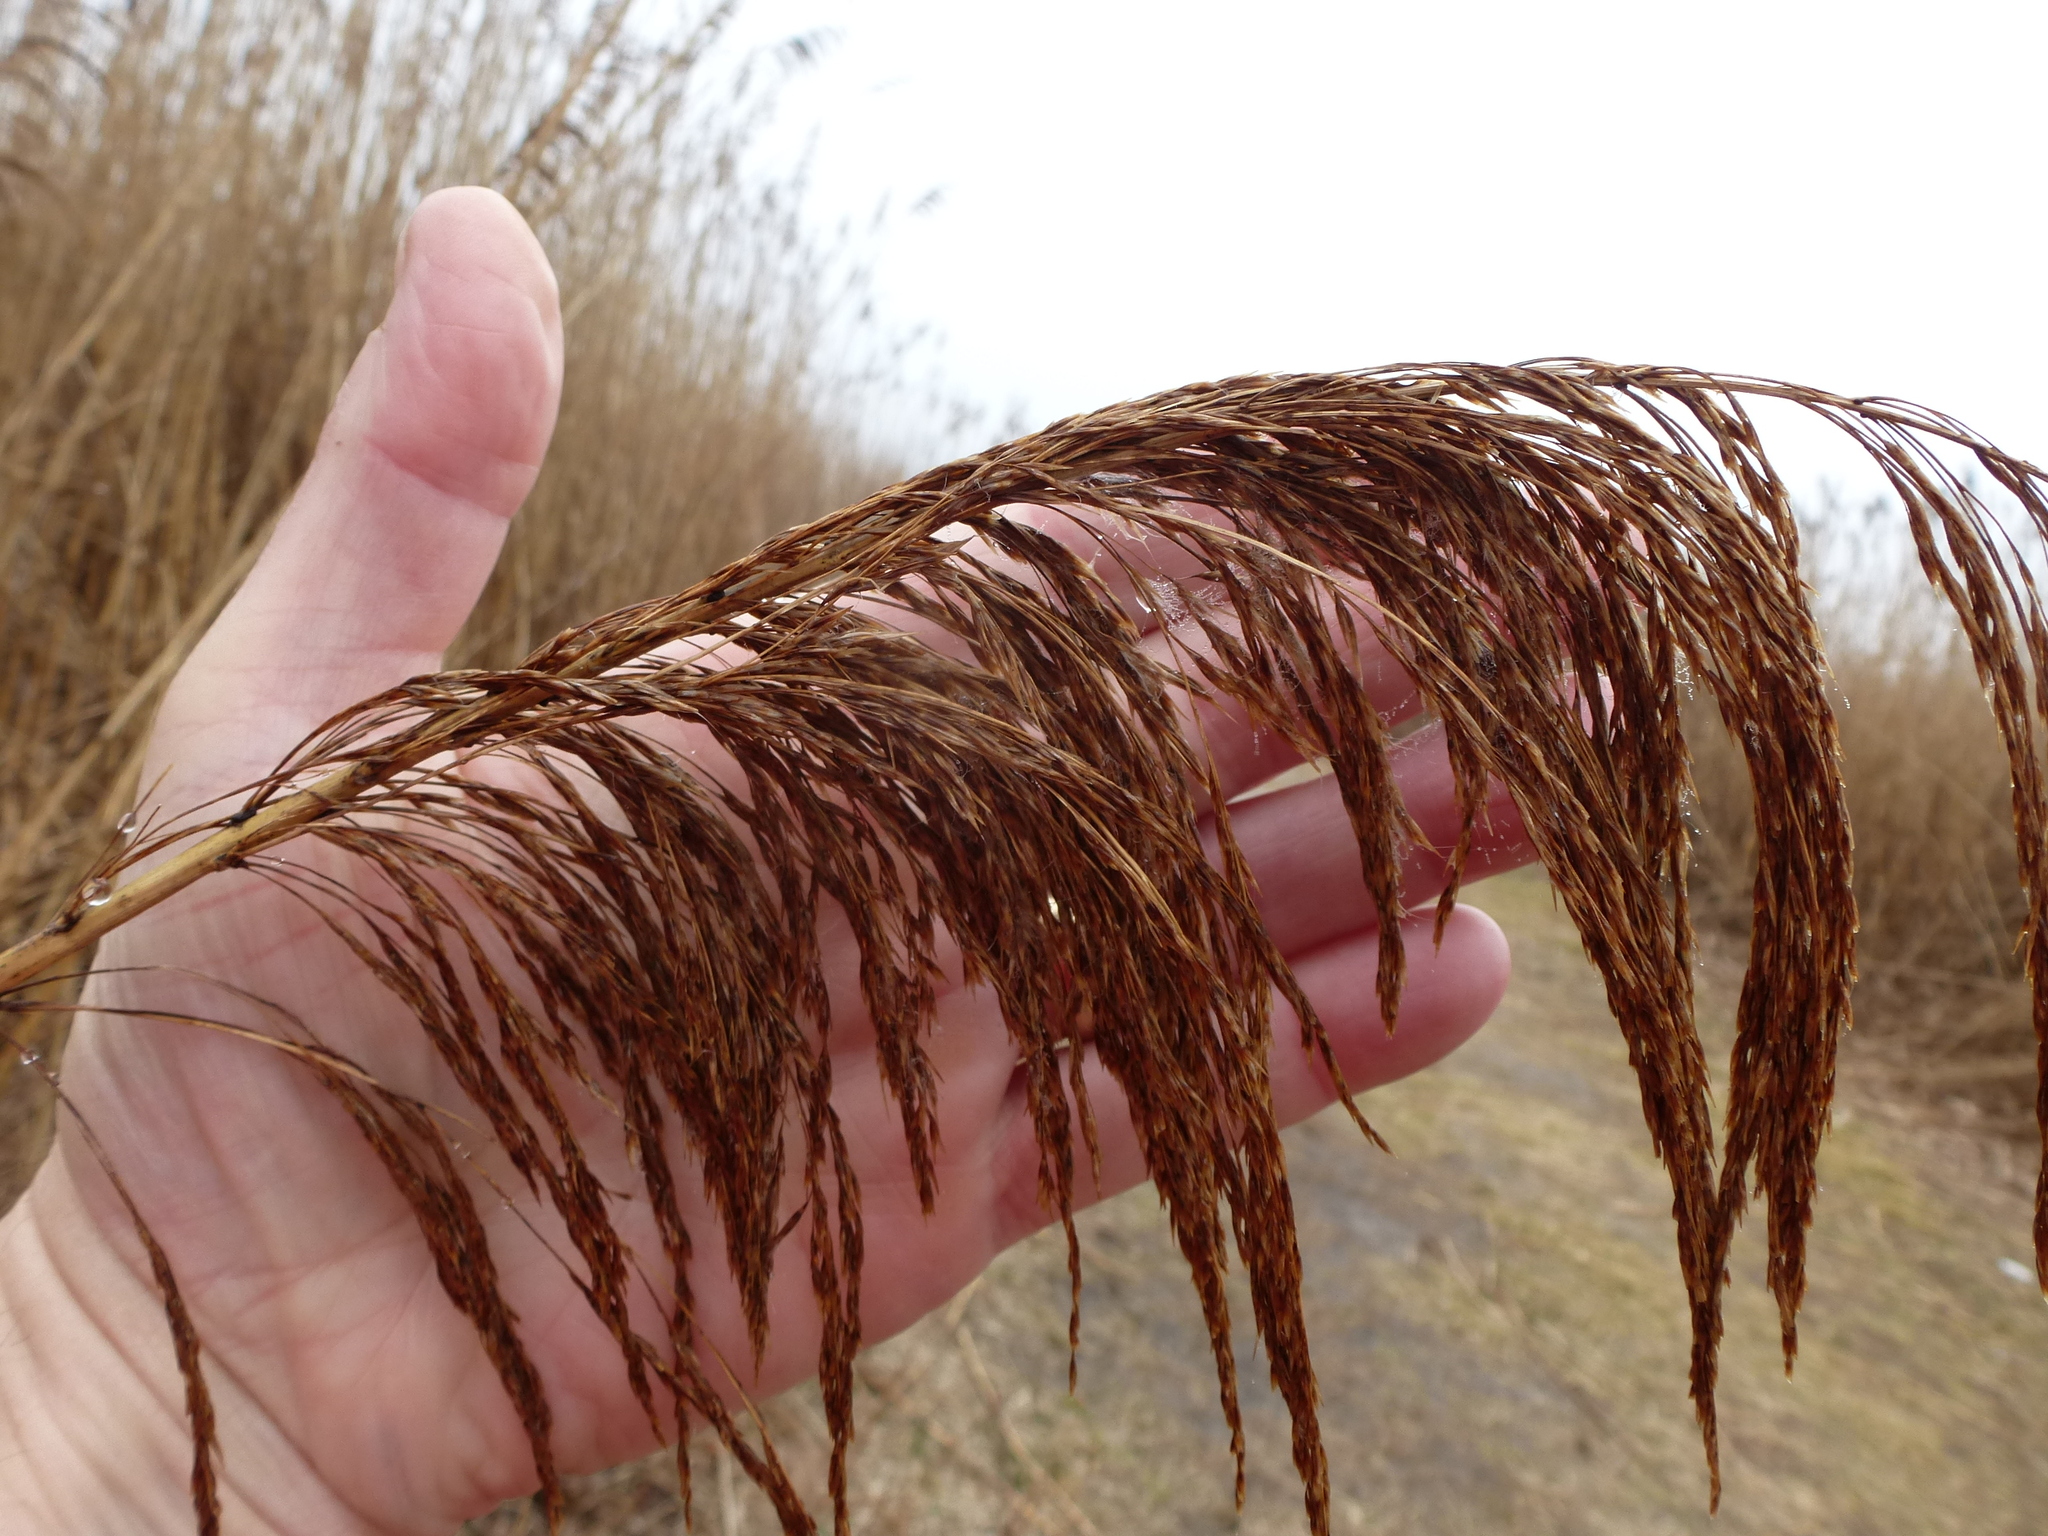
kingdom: Plantae
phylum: Tracheophyta
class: Liliopsida
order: Poales
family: Poaceae
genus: Phragmites
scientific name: Phragmites australis
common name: Common reed
